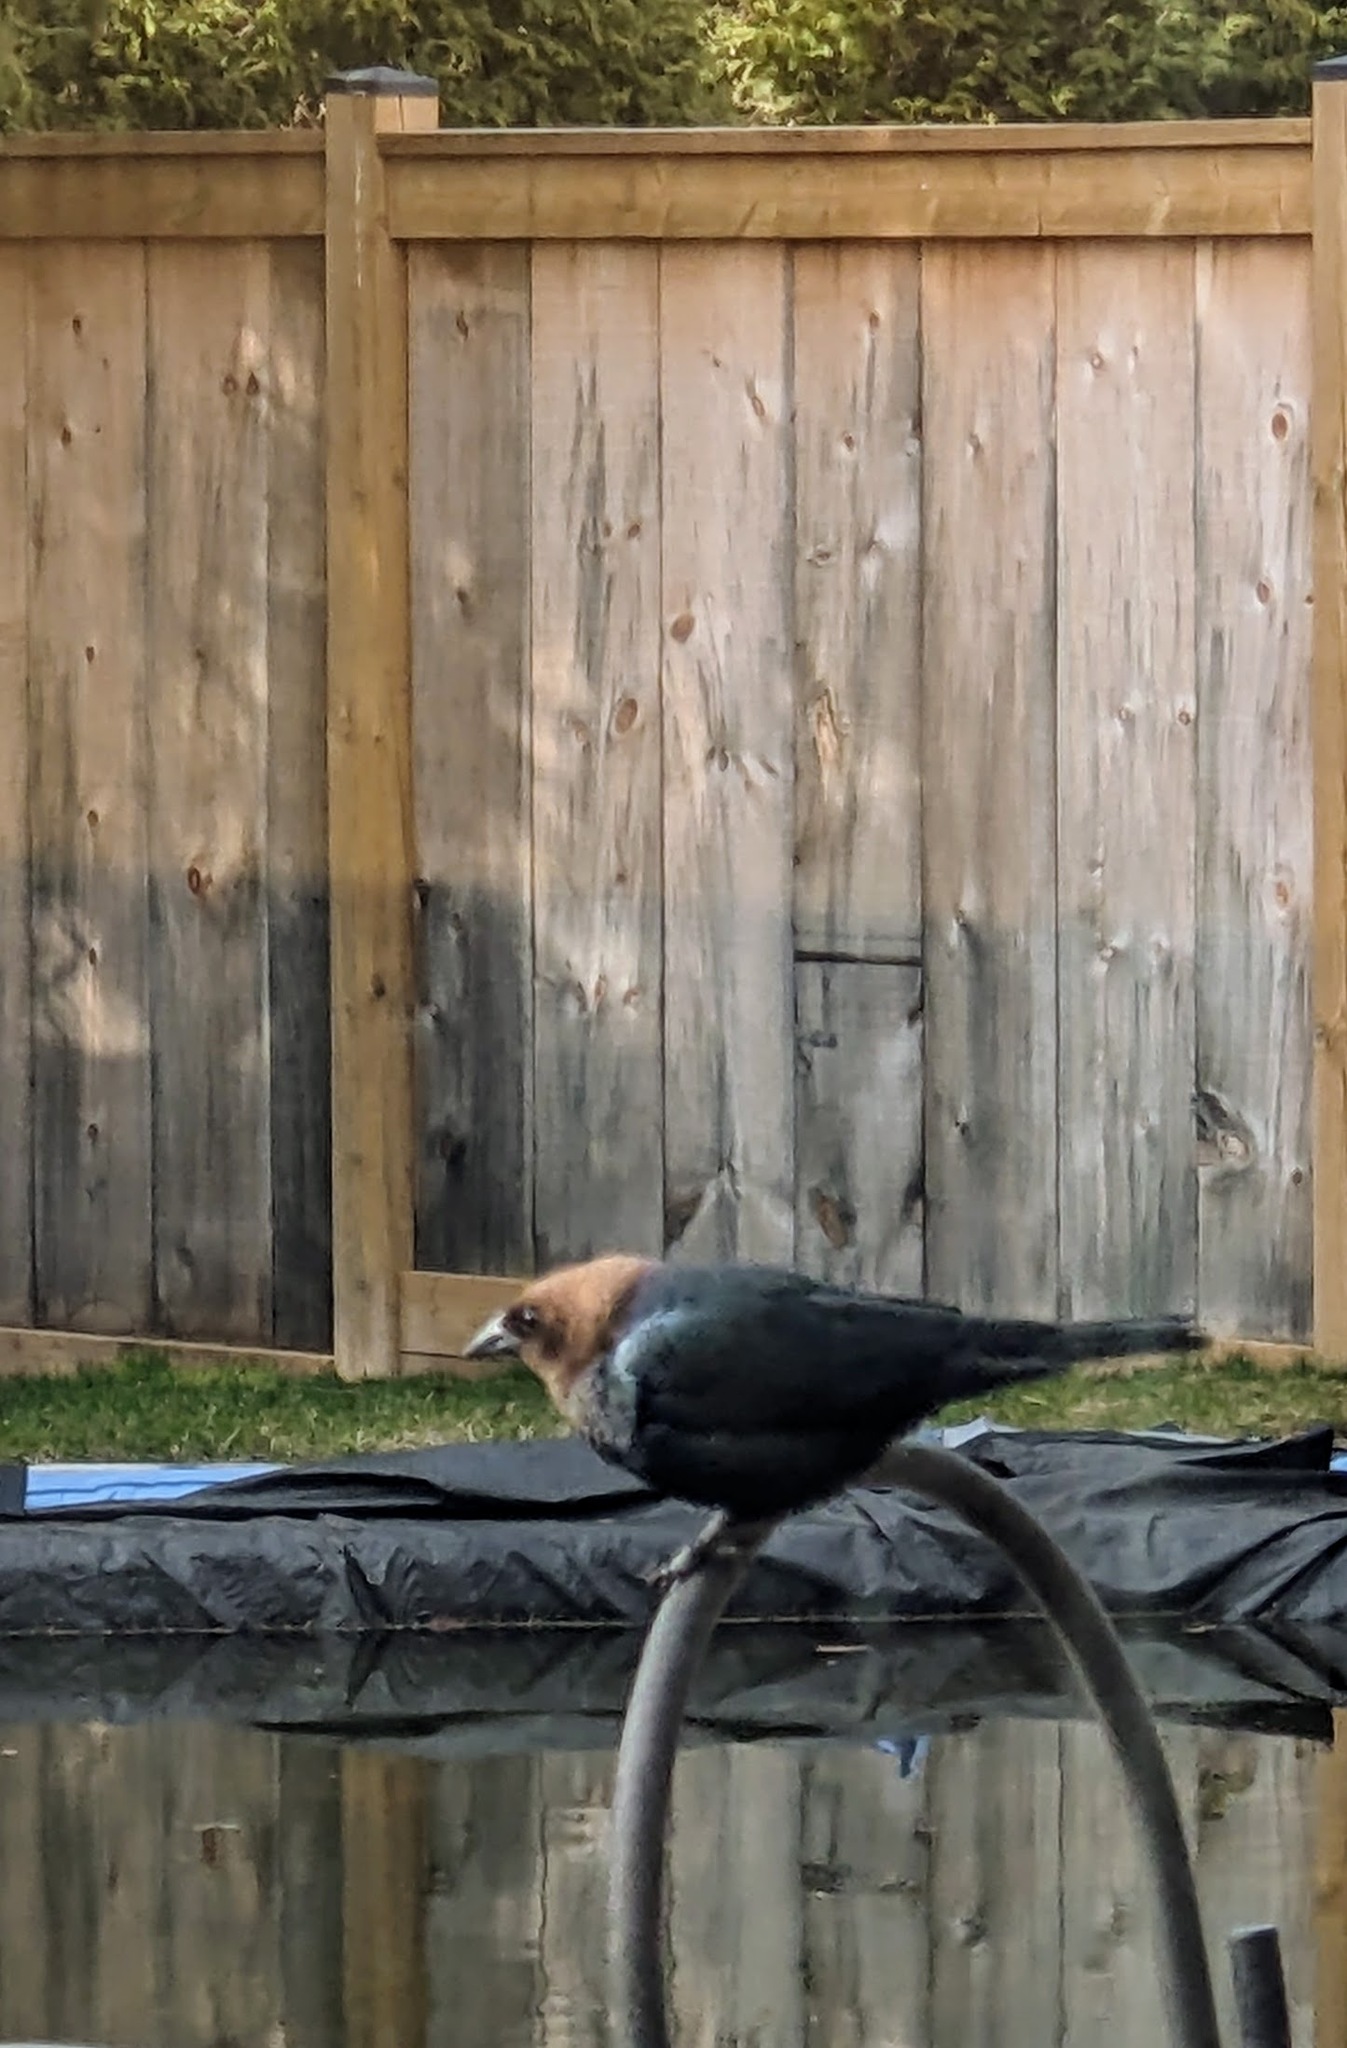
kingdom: Animalia
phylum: Chordata
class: Aves
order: Passeriformes
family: Icteridae
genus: Molothrus
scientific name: Molothrus ater
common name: Brown-headed cowbird
